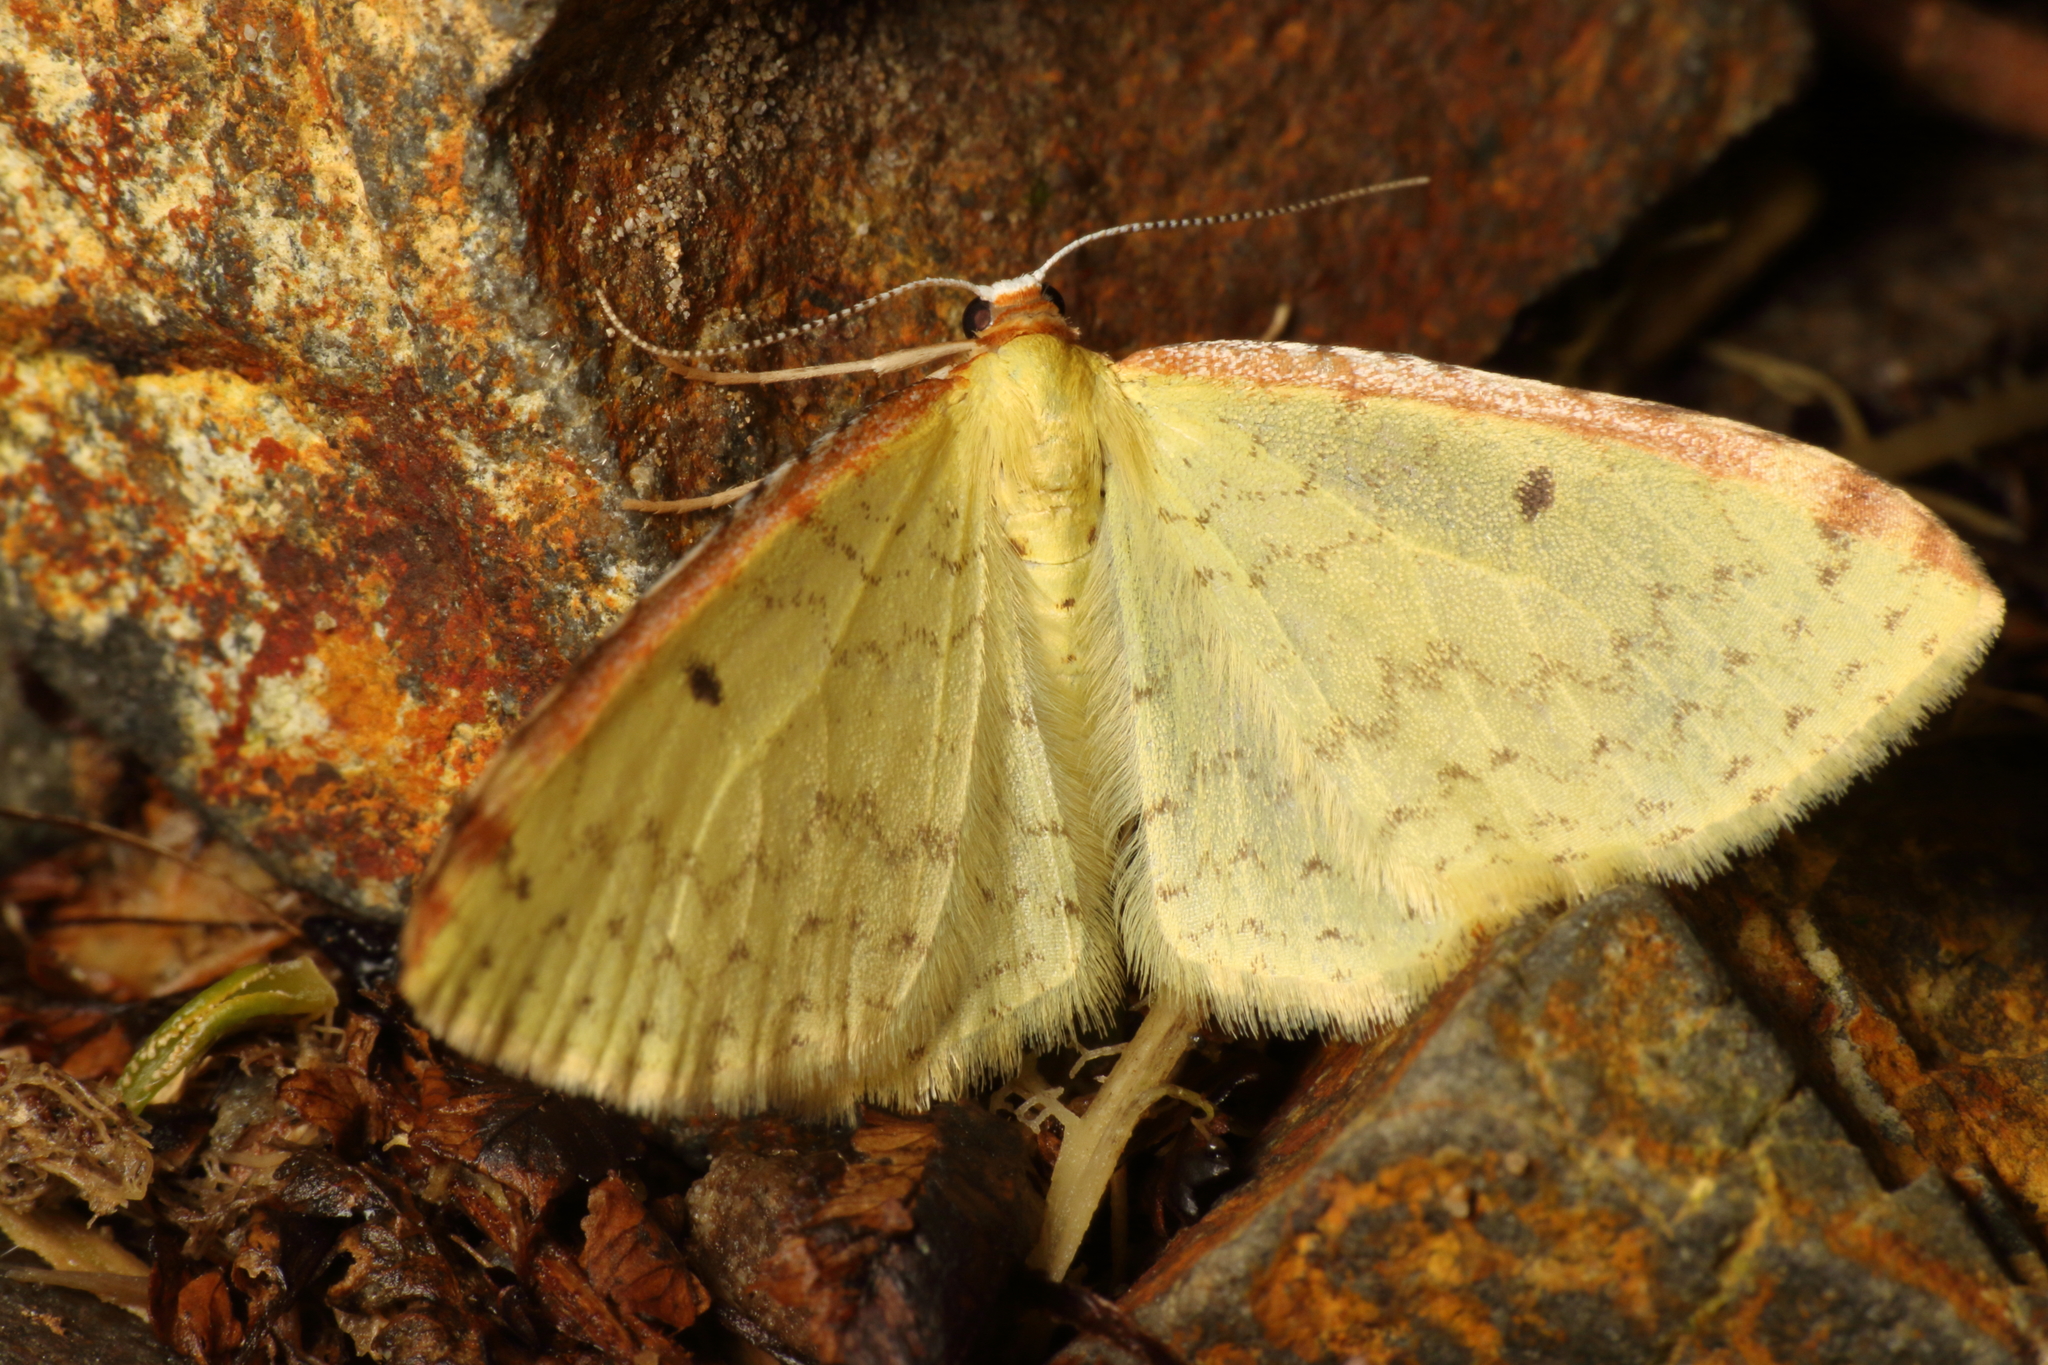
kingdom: Animalia
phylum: Arthropoda
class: Insecta
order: Lepidoptera
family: Geometridae
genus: Epiphryne
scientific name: Epiphryne undosata
